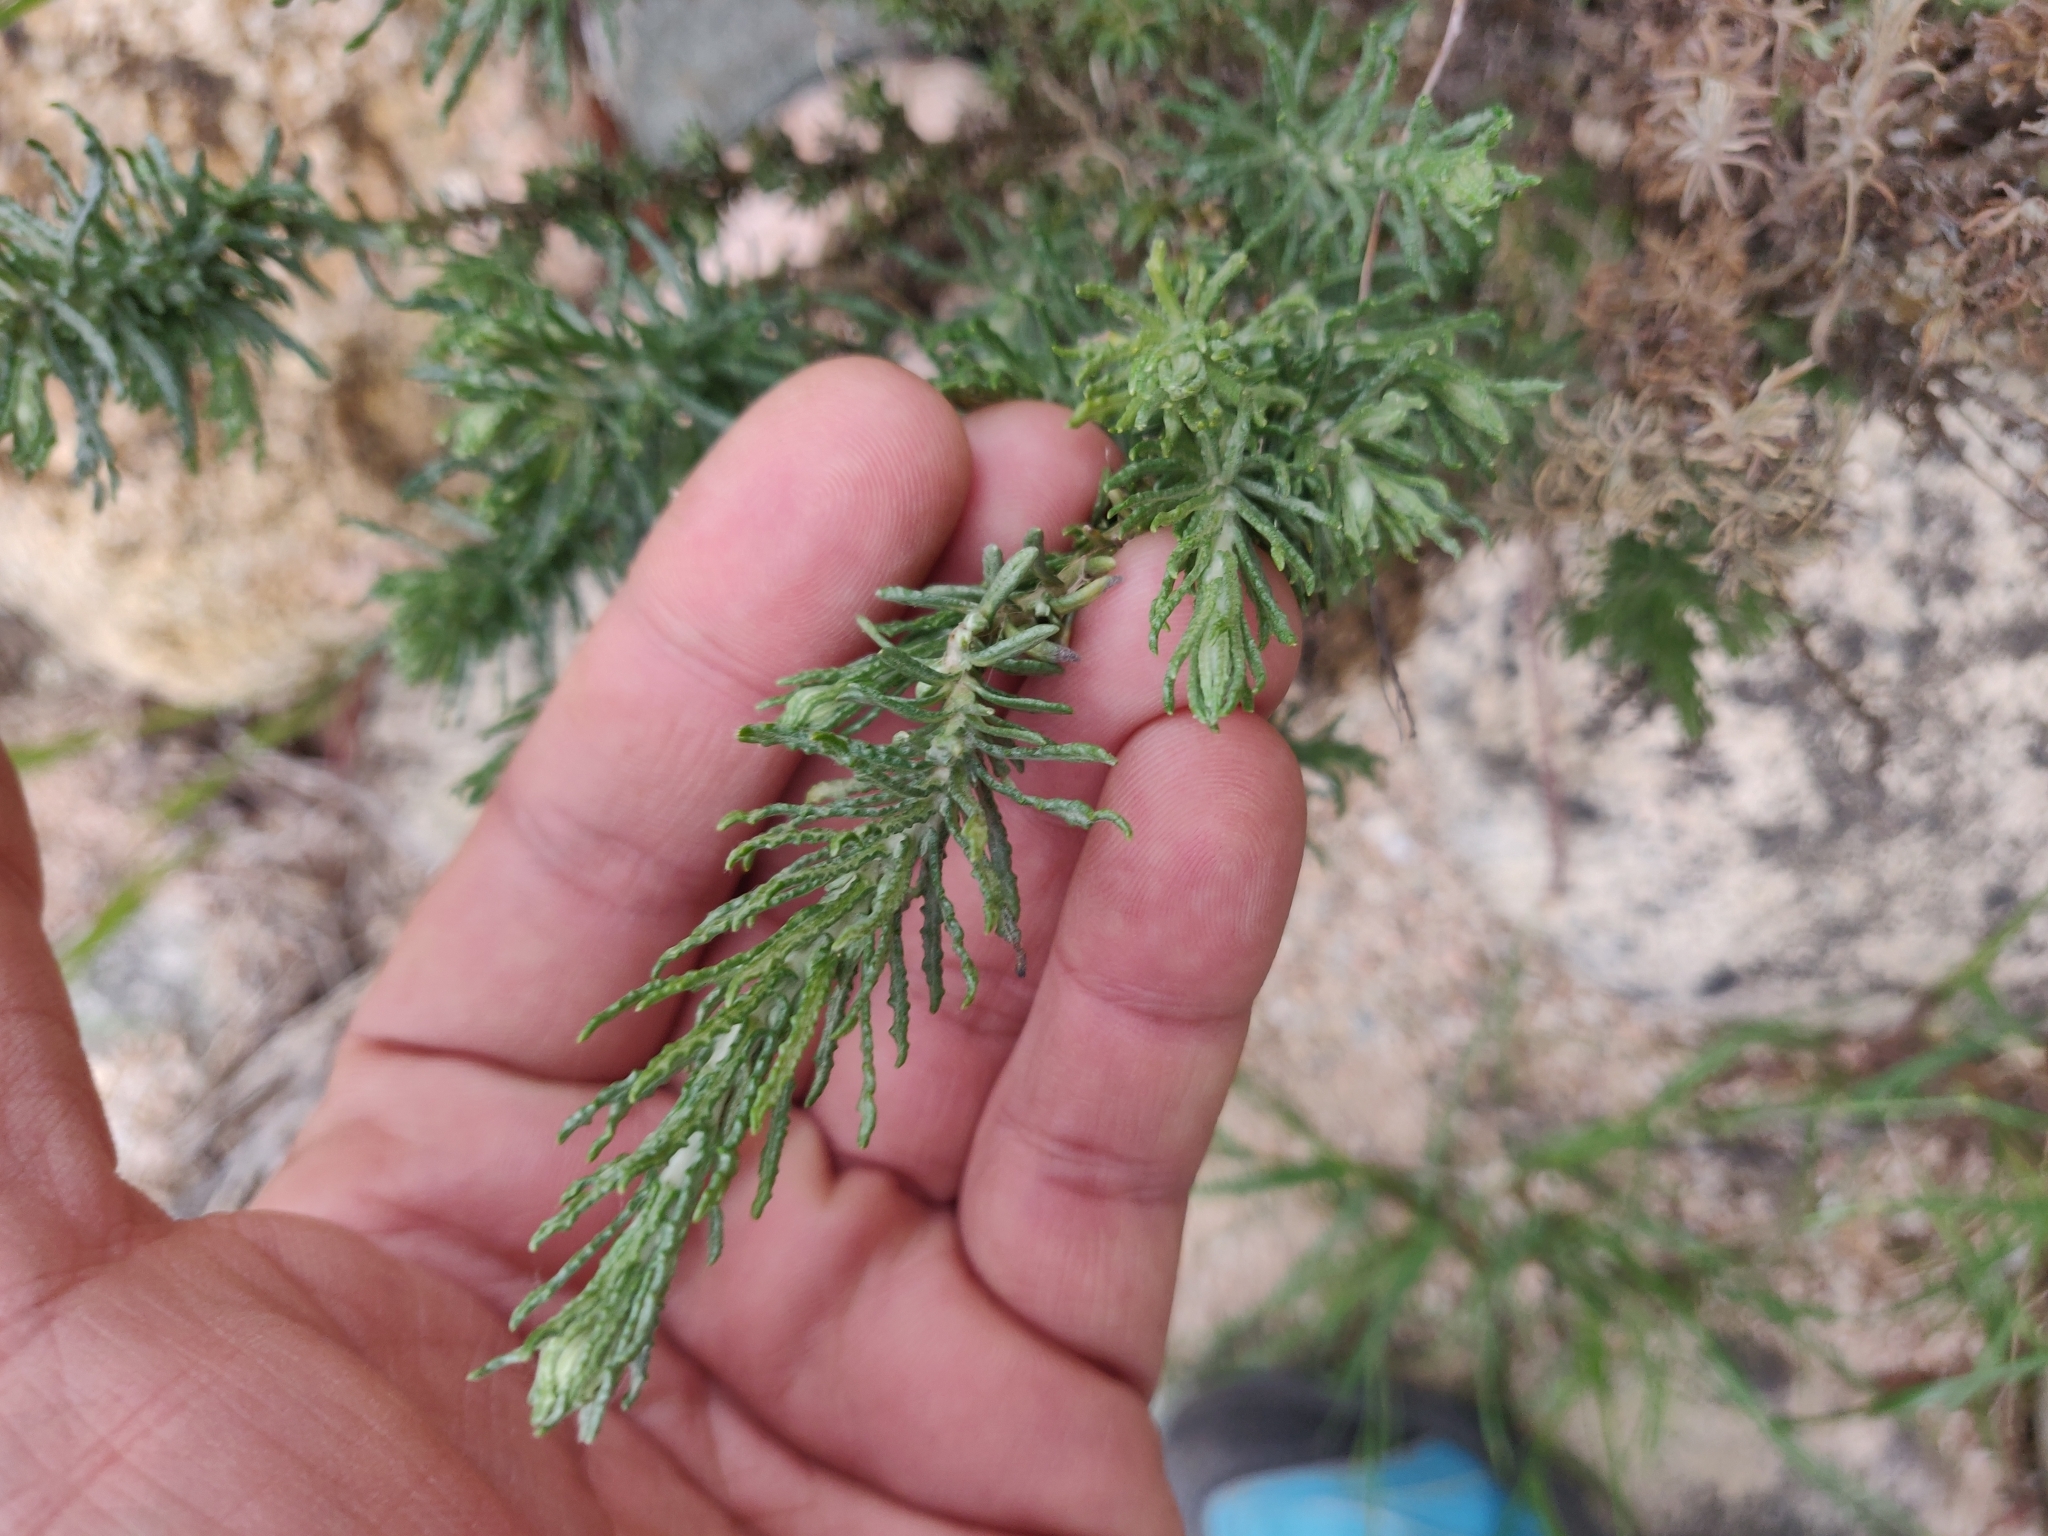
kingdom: Plantae
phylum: Tracheophyta
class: Magnoliopsida
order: Asterales
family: Asteraceae
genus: Helichrysum
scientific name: Helichrysum italicum
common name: Curryplant
